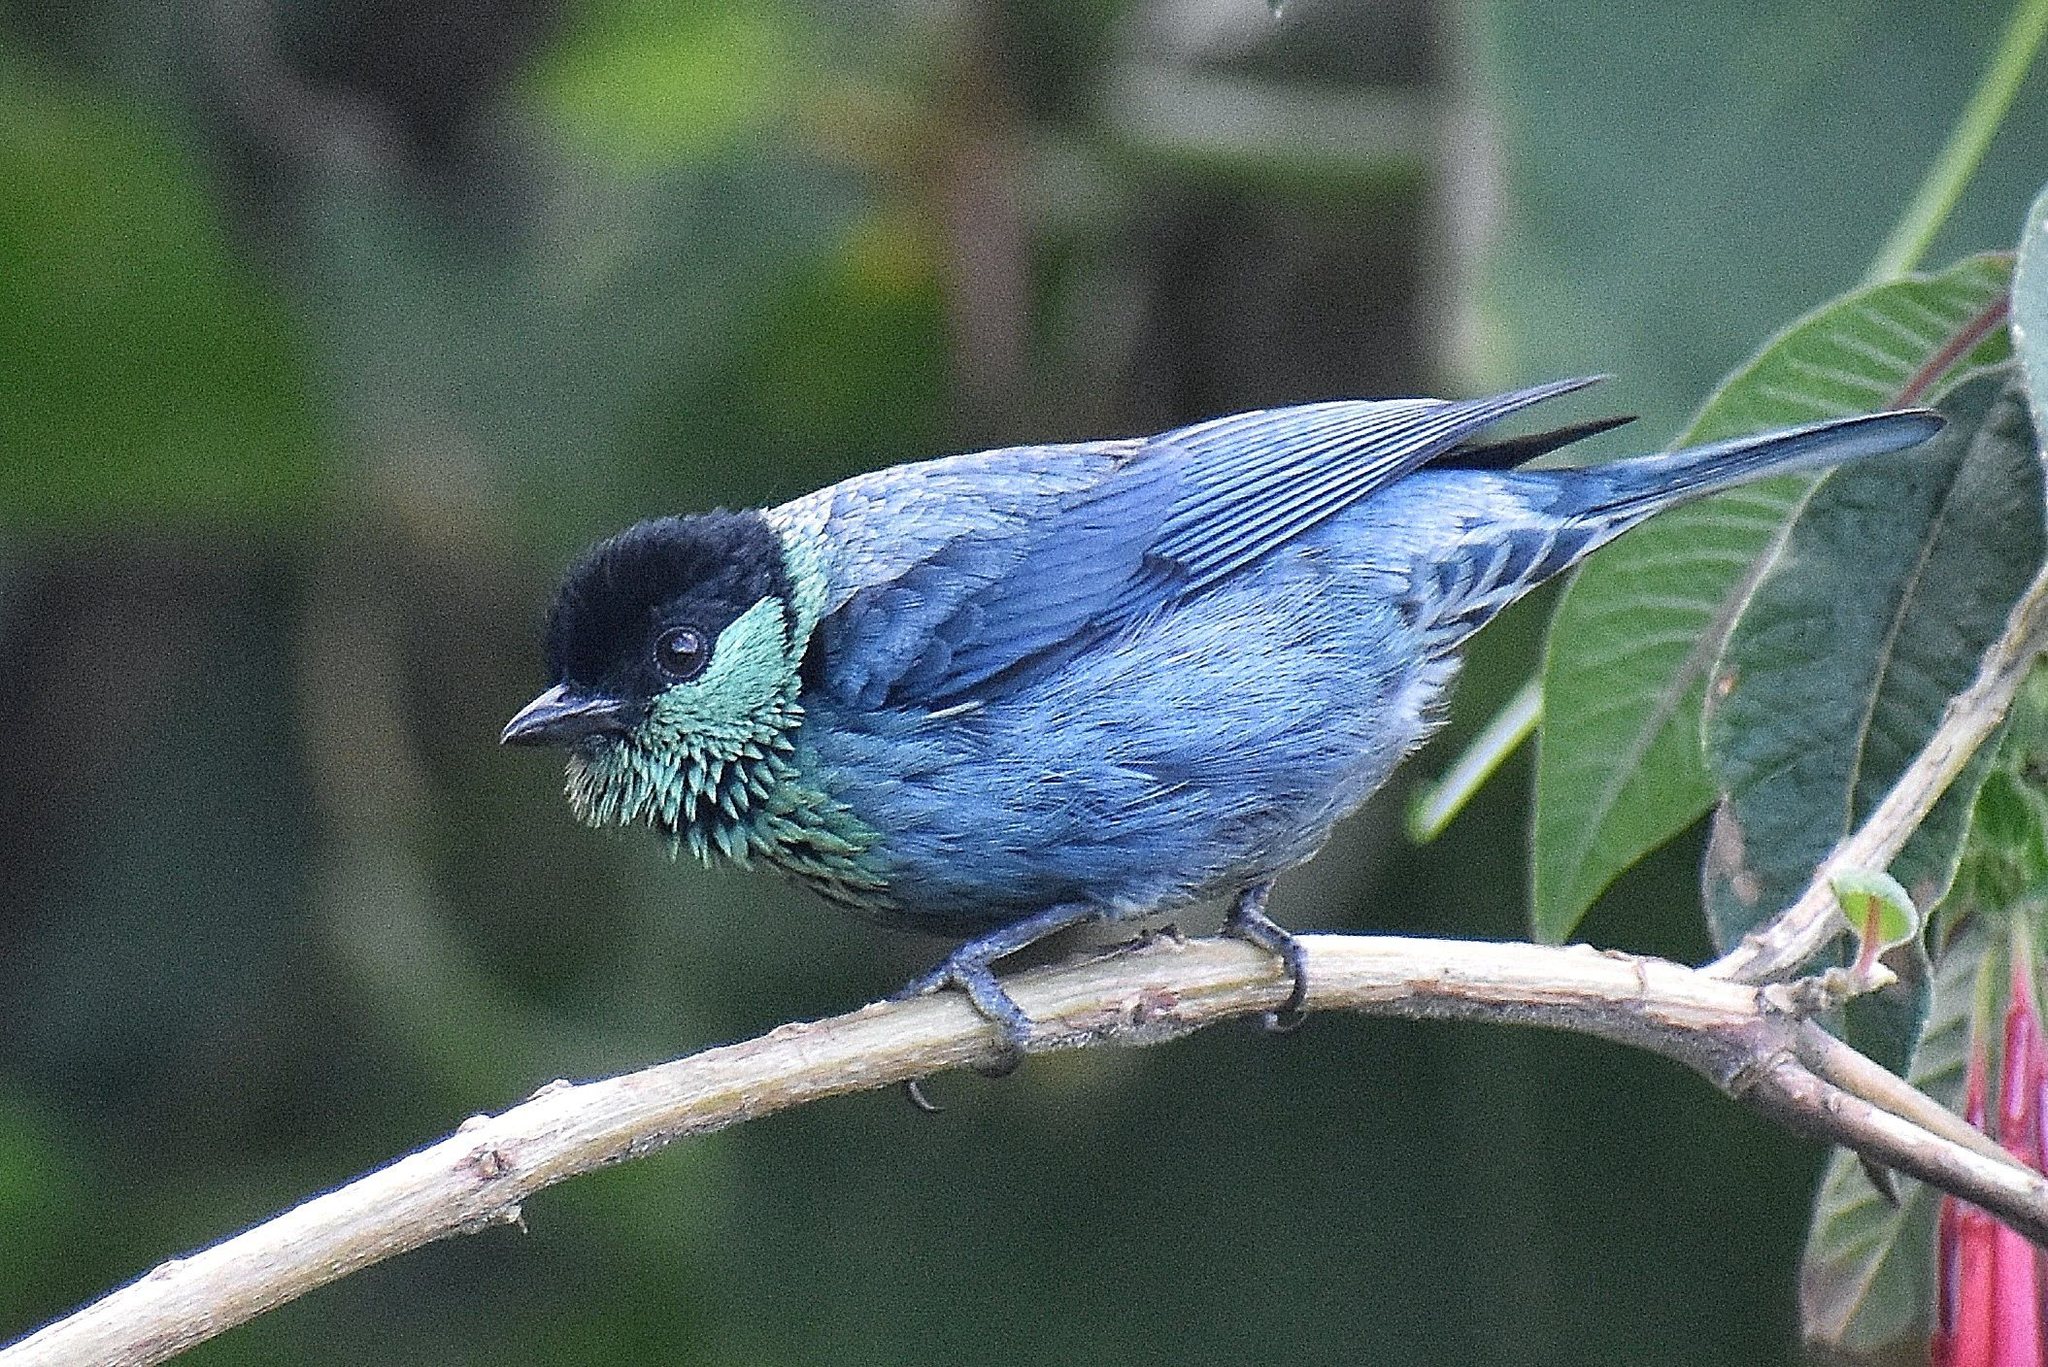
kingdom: Animalia
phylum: Chordata
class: Aves
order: Passeriformes
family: Thraupidae
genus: Stilpnia
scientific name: Stilpnia heinei
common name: Black-capped tanager
